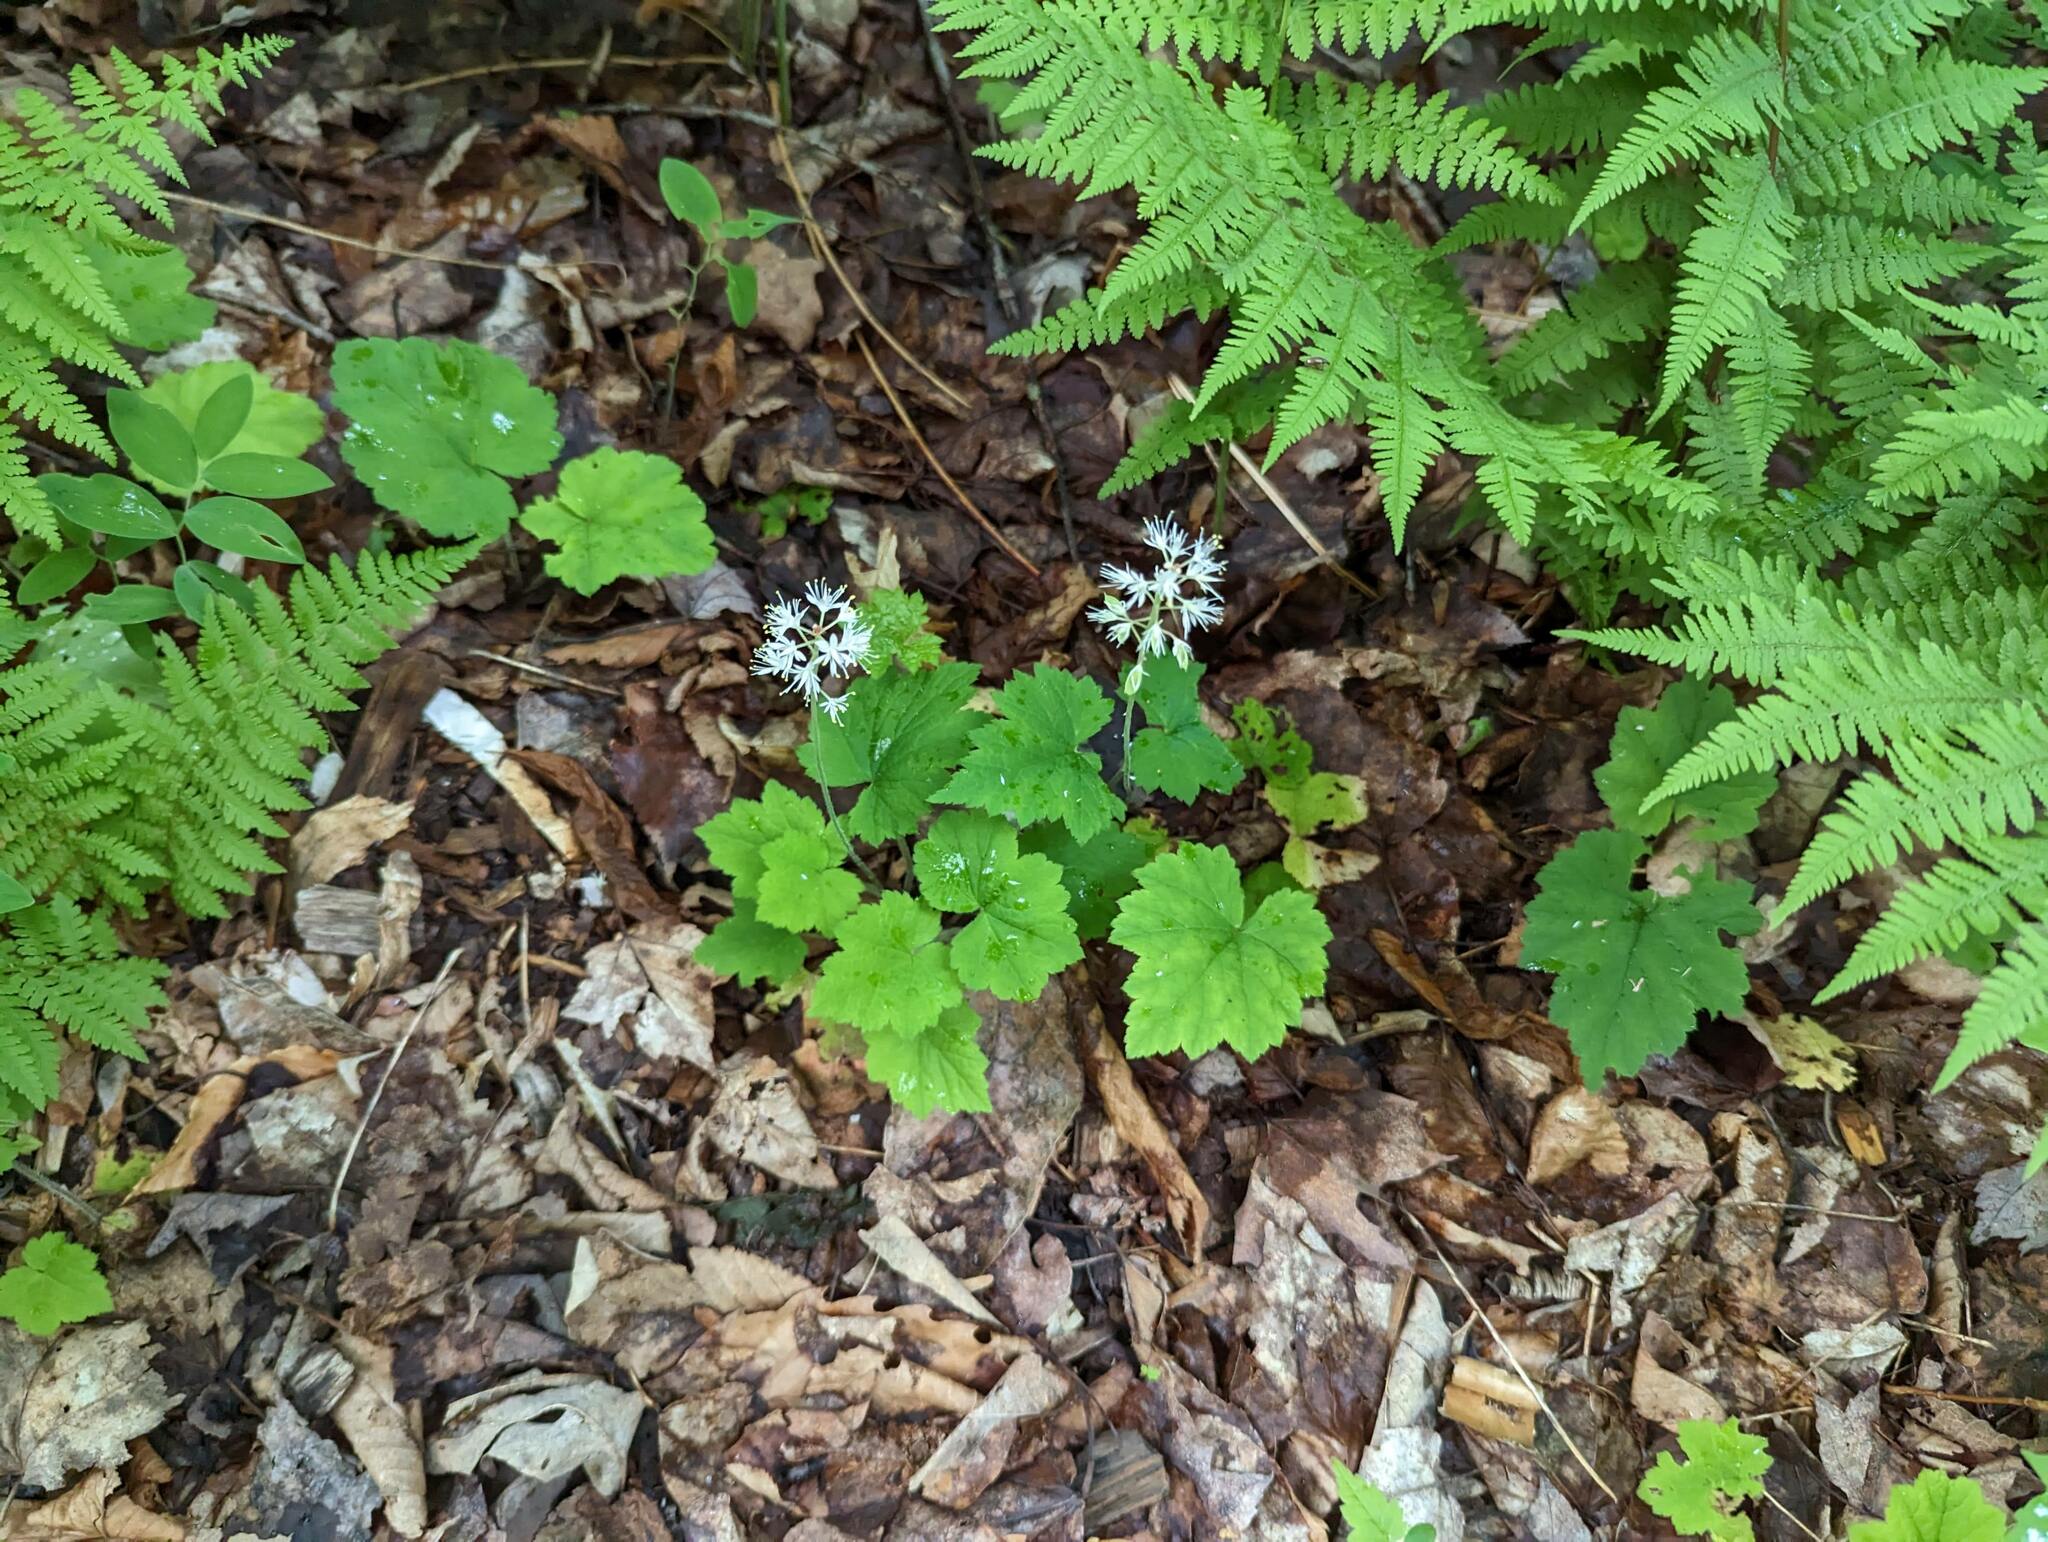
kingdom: Plantae
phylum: Tracheophyta
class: Magnoliopsida
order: Saxifragales
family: Saxifragaceae
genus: Tiarella
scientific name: Tiarella stolonifera
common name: Stoloniferous foamflower
